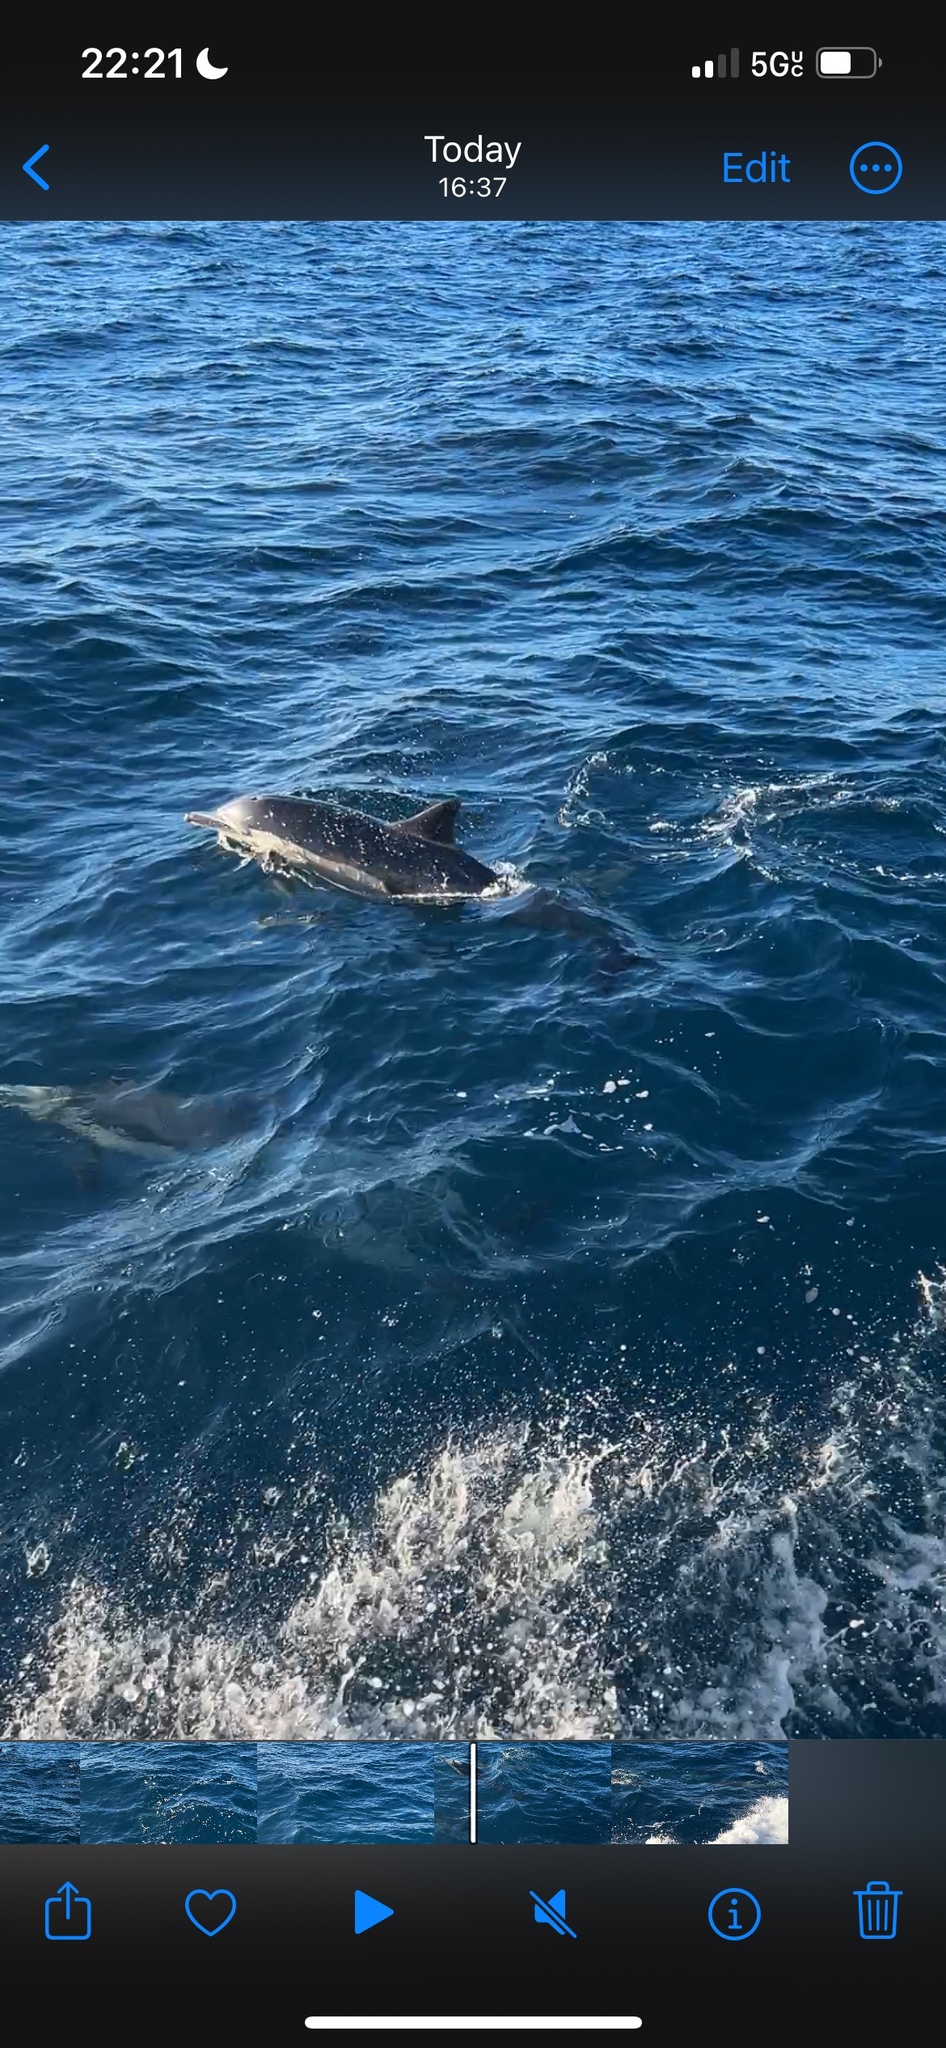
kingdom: Animalia
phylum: Chordata
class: Mammalia
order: Cetacea
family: Delphinidae
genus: Delphinus
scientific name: Delphinus delphis
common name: Common dolphin
